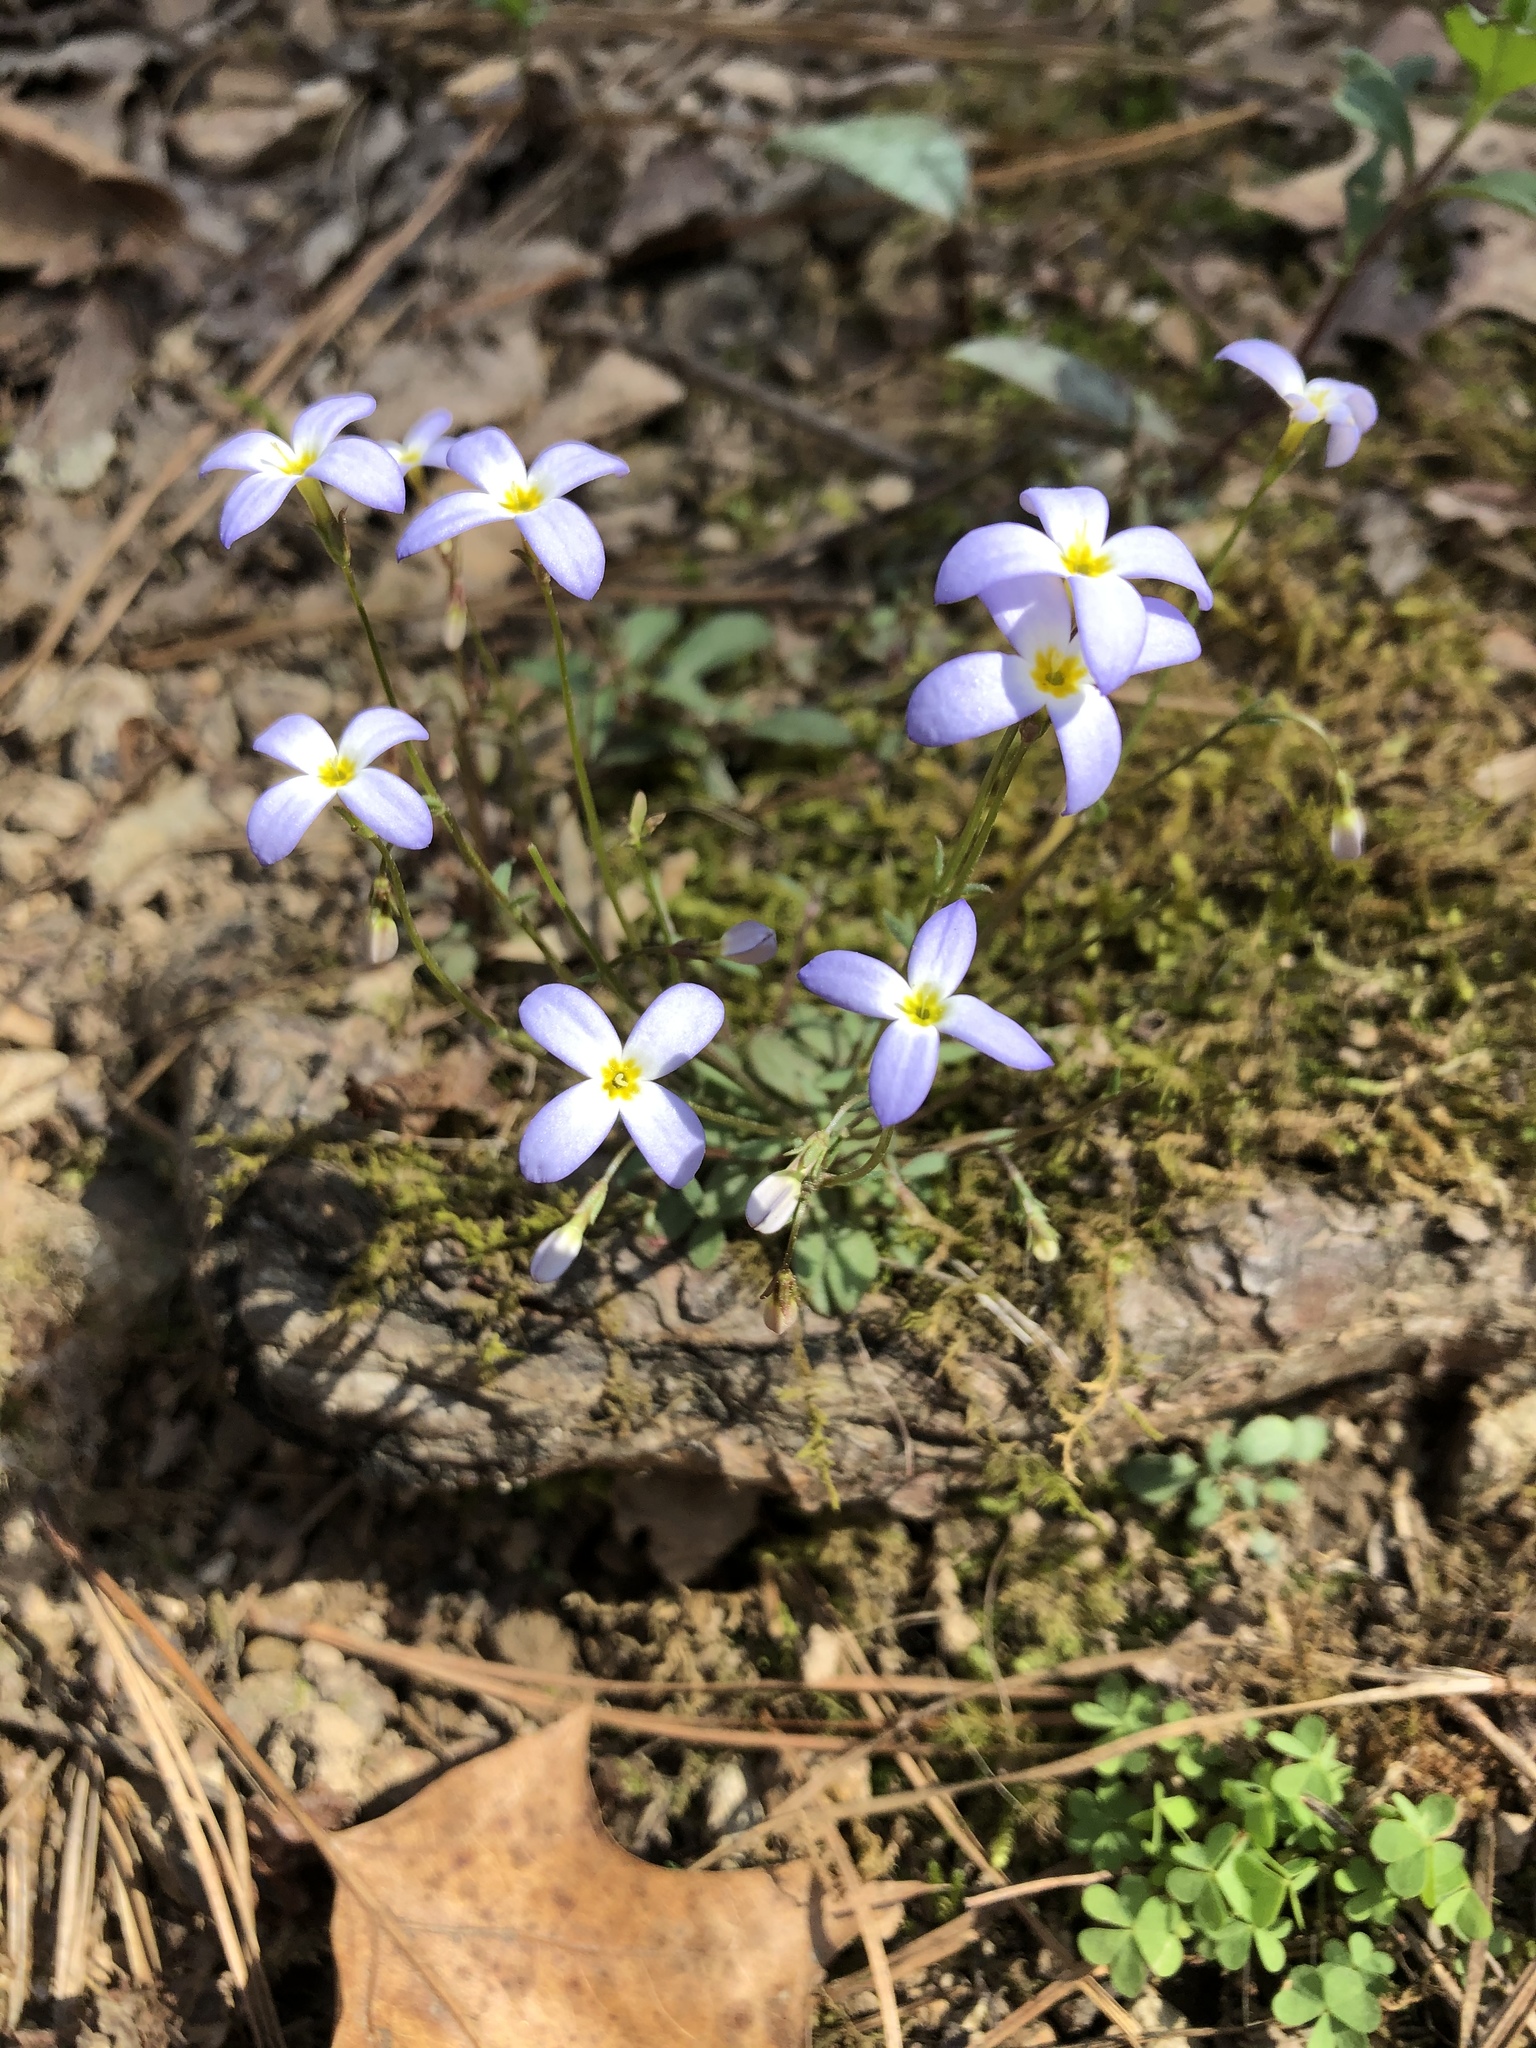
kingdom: Plantae
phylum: Tracheophyta
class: Magnoliopsida
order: Gentianales
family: Rubiaceae
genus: Houstonia
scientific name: Houstonia caerulea
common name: Bluets
